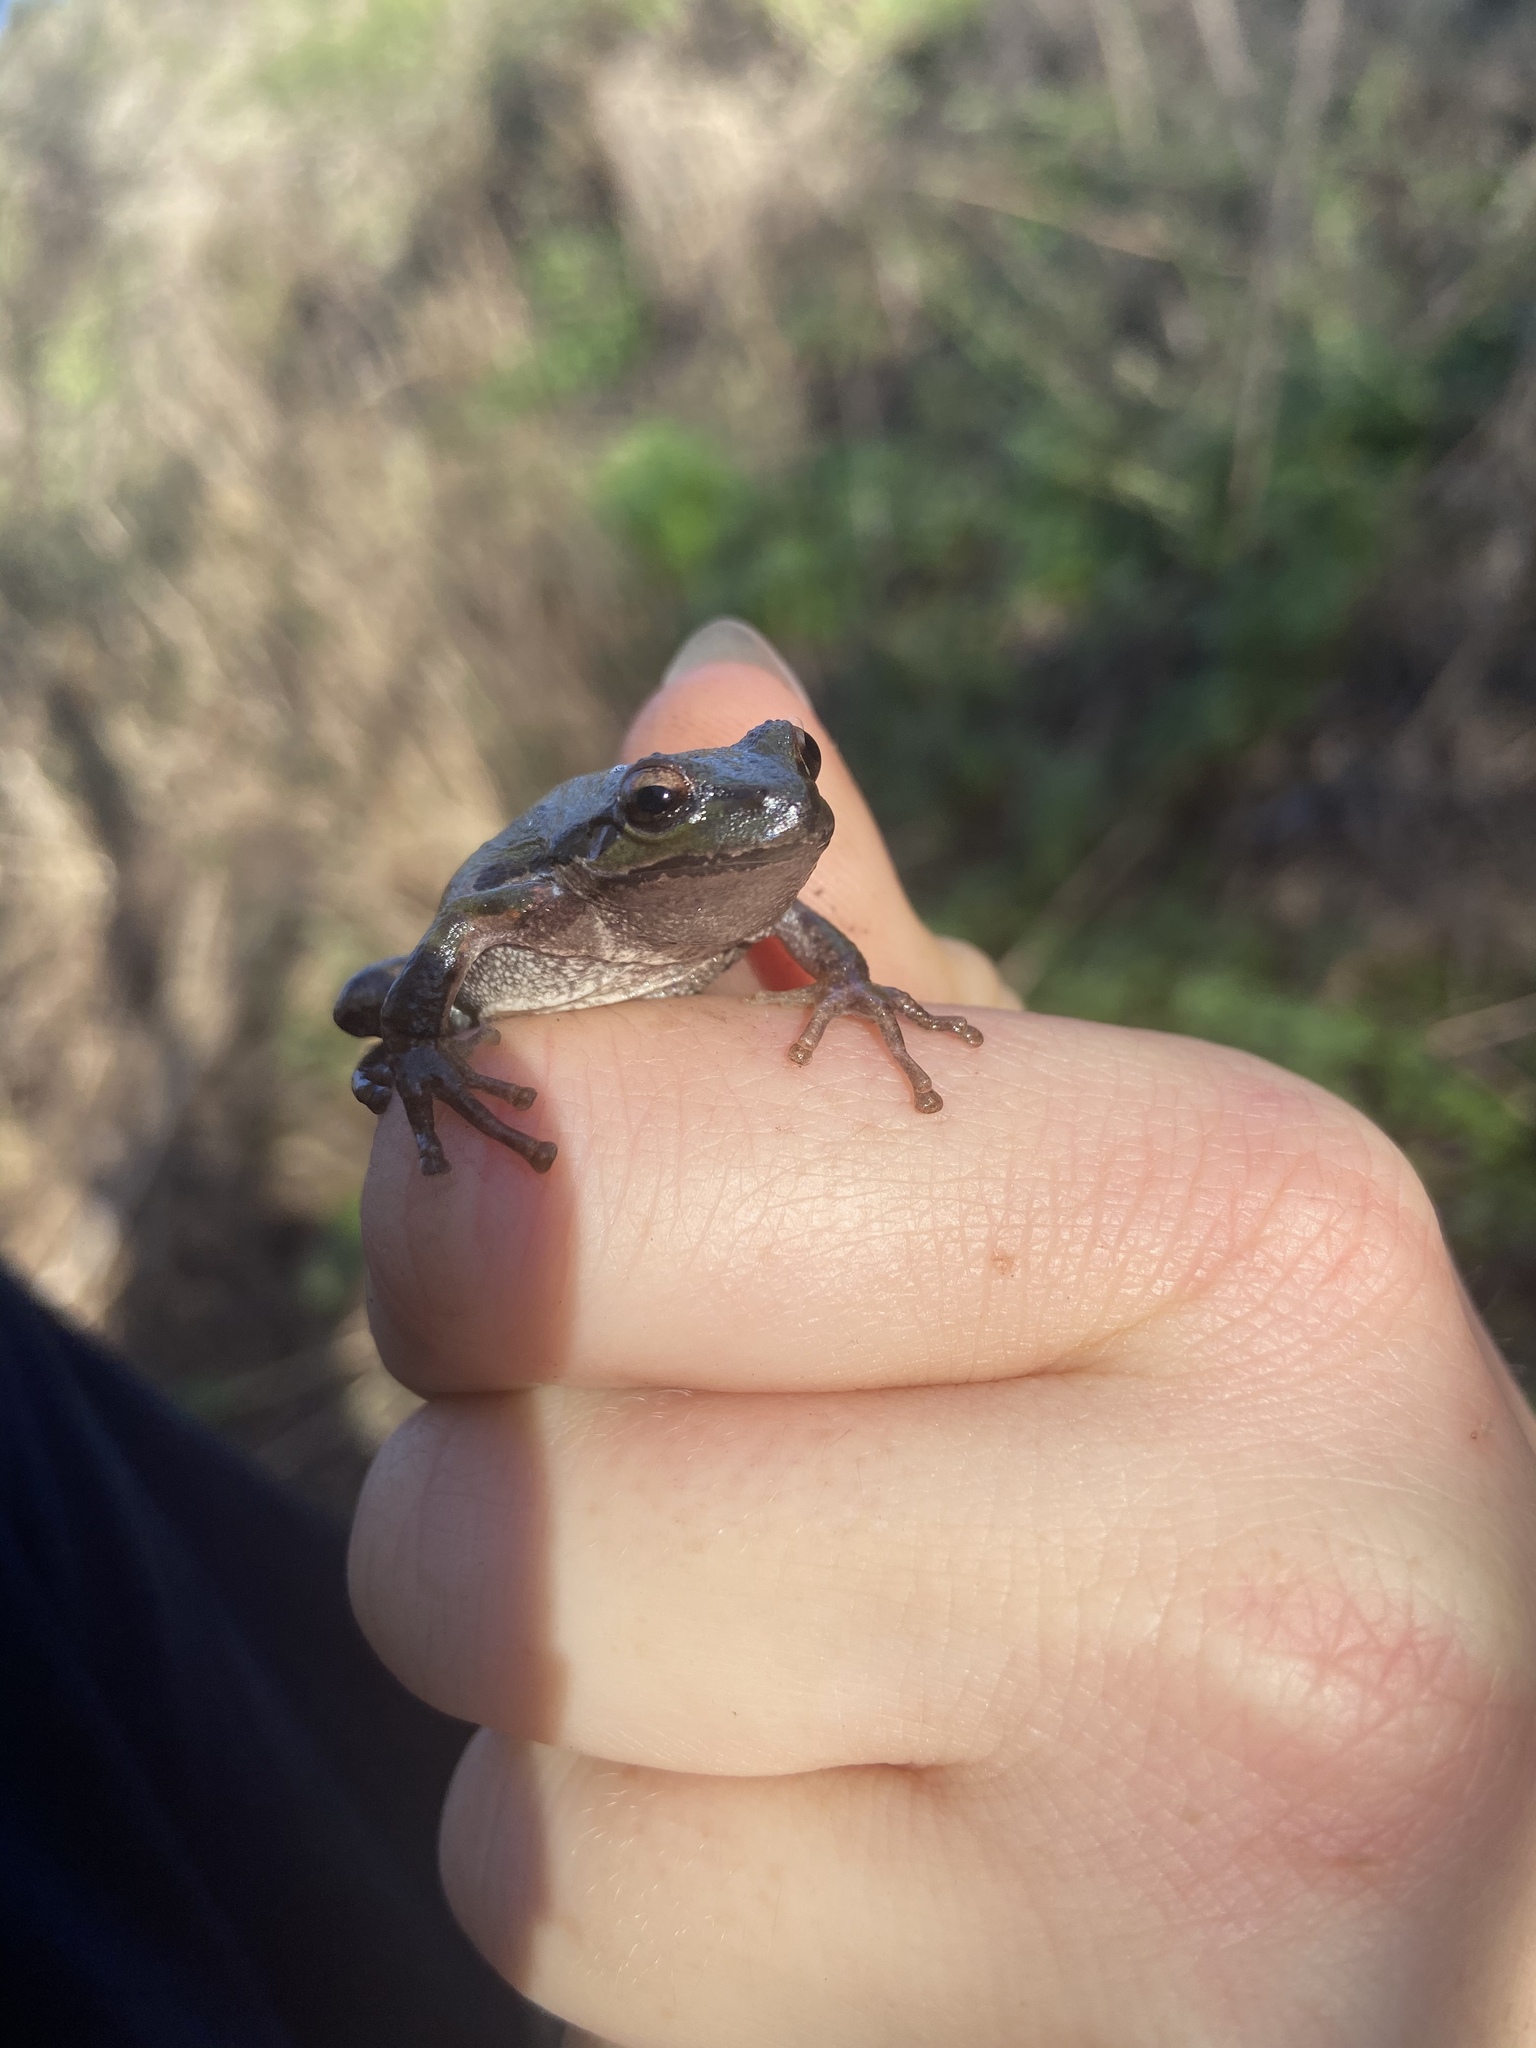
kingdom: Animalia
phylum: Chordata
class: Amphibia
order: Anura
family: Hylidae
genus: Pseudacris
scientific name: Pseudacris regilla
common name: Pacific chorus frog
